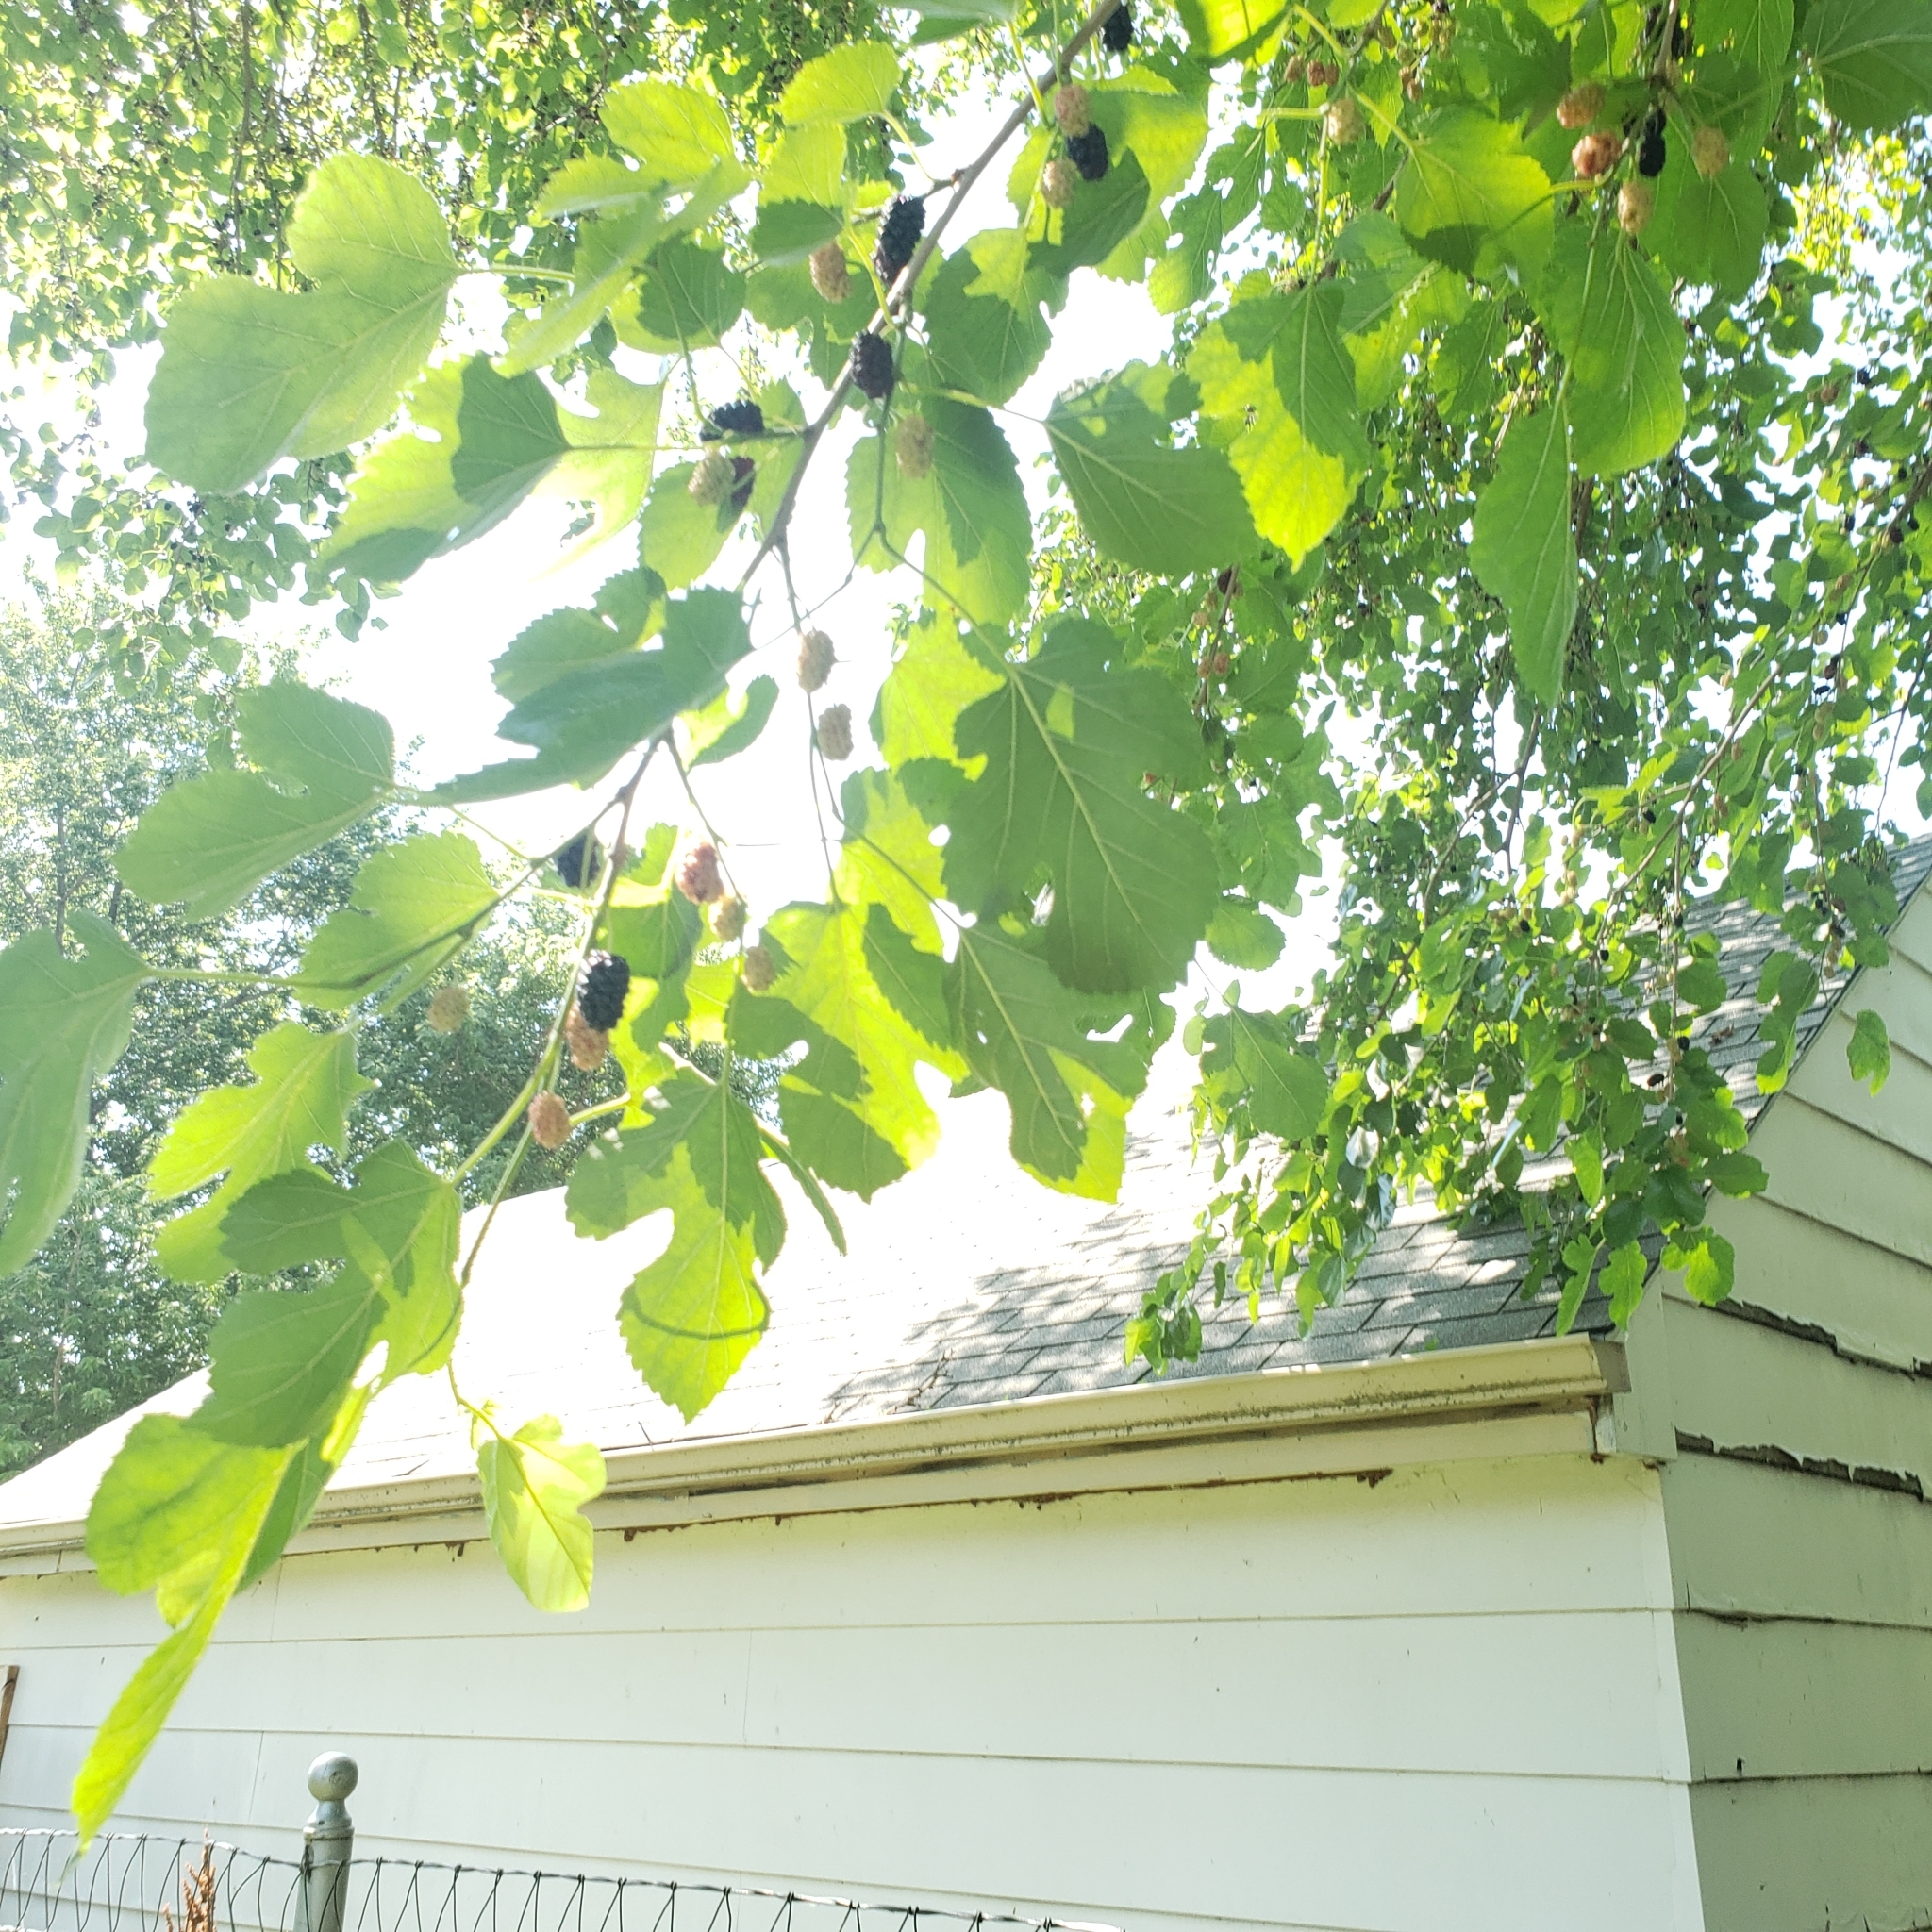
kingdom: Plantae
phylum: Tracheophyta
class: Magnoliopsida
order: Rosales
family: Moraceae
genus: Morus
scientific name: Morus alba
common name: White mulberry
